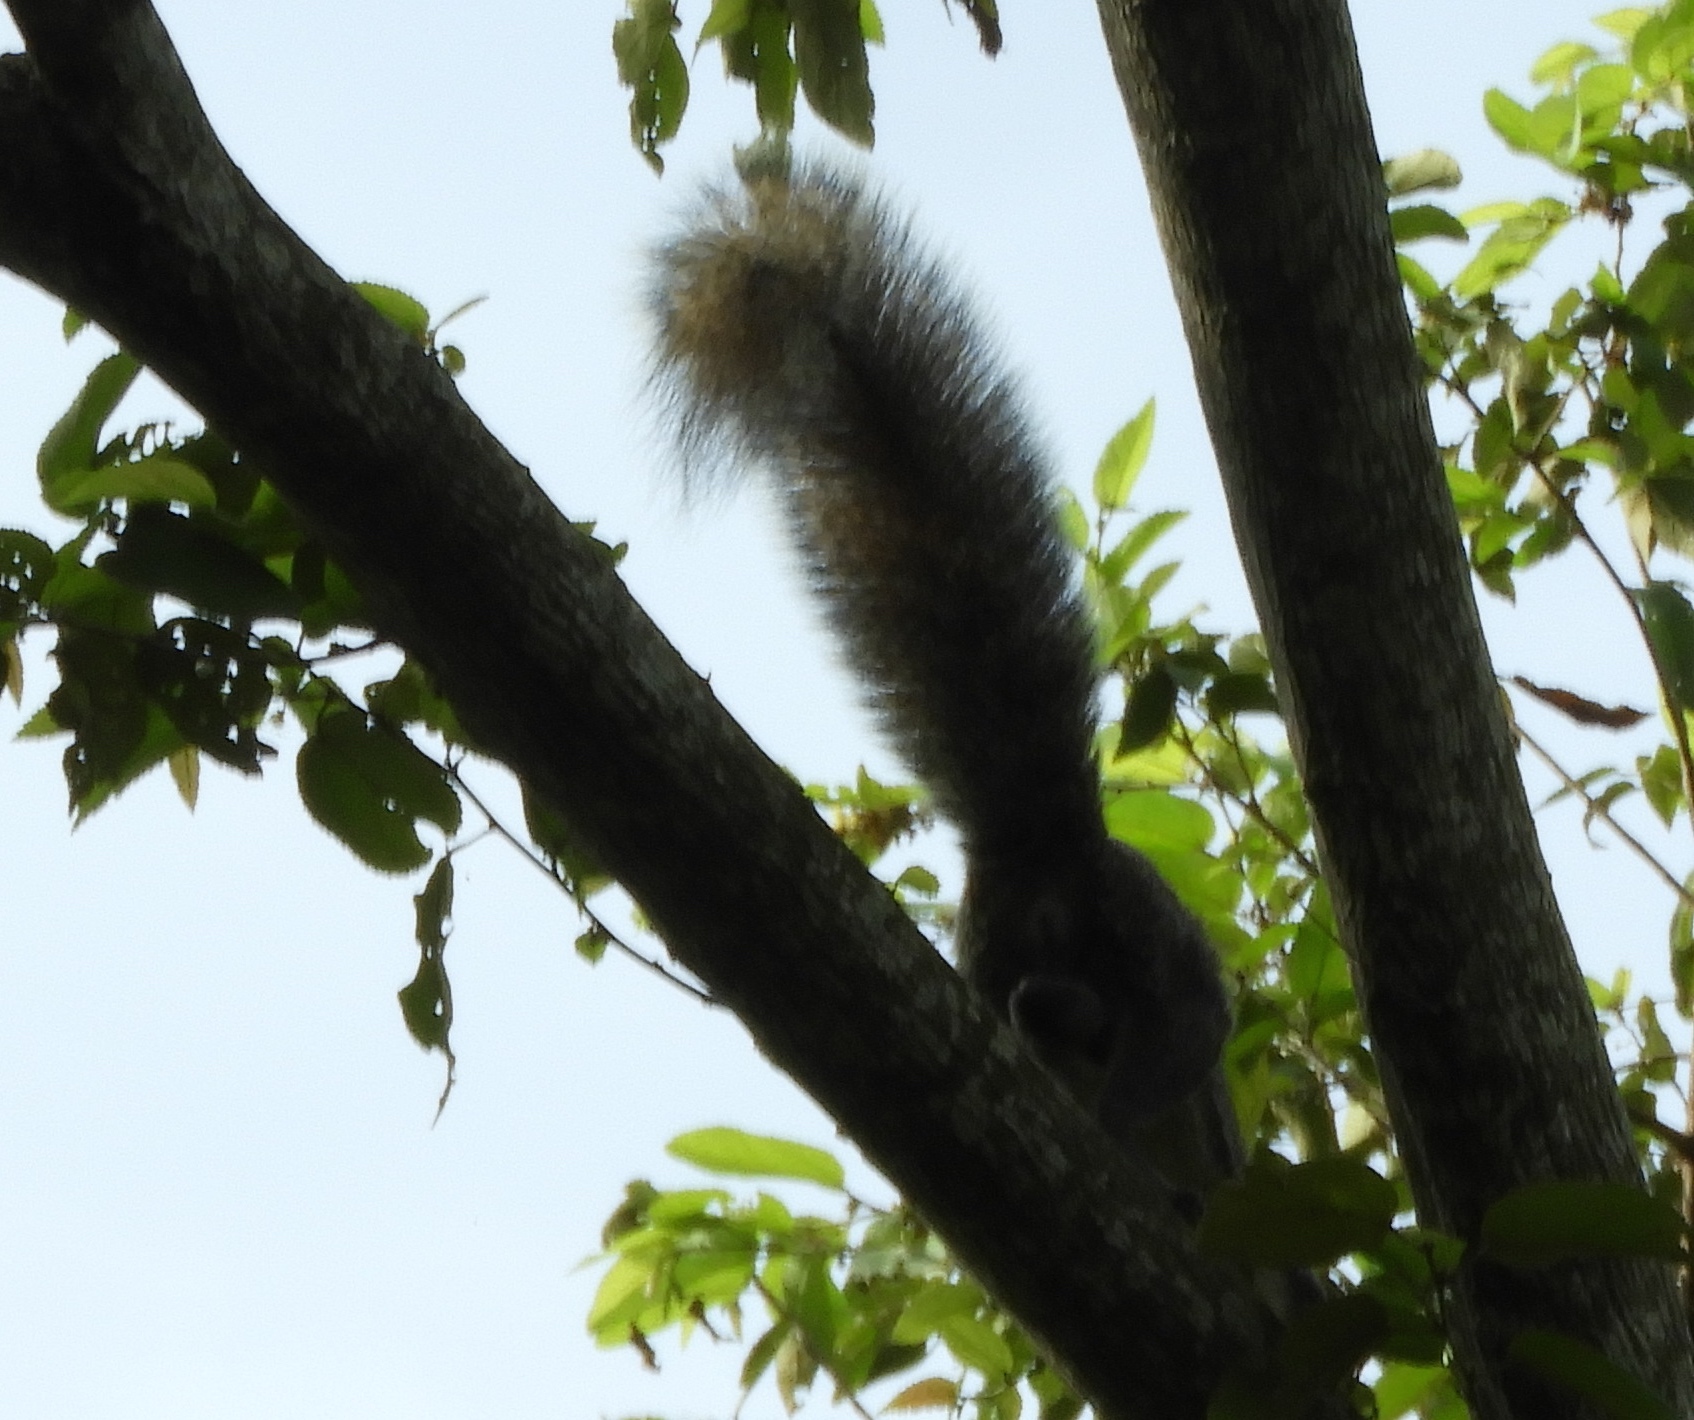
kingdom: Animalia
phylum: Chordata
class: Mammalia
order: Rodentia
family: Sciuridae
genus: Sciurus
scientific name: Sciurus colliaei
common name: Collie's squirrel
